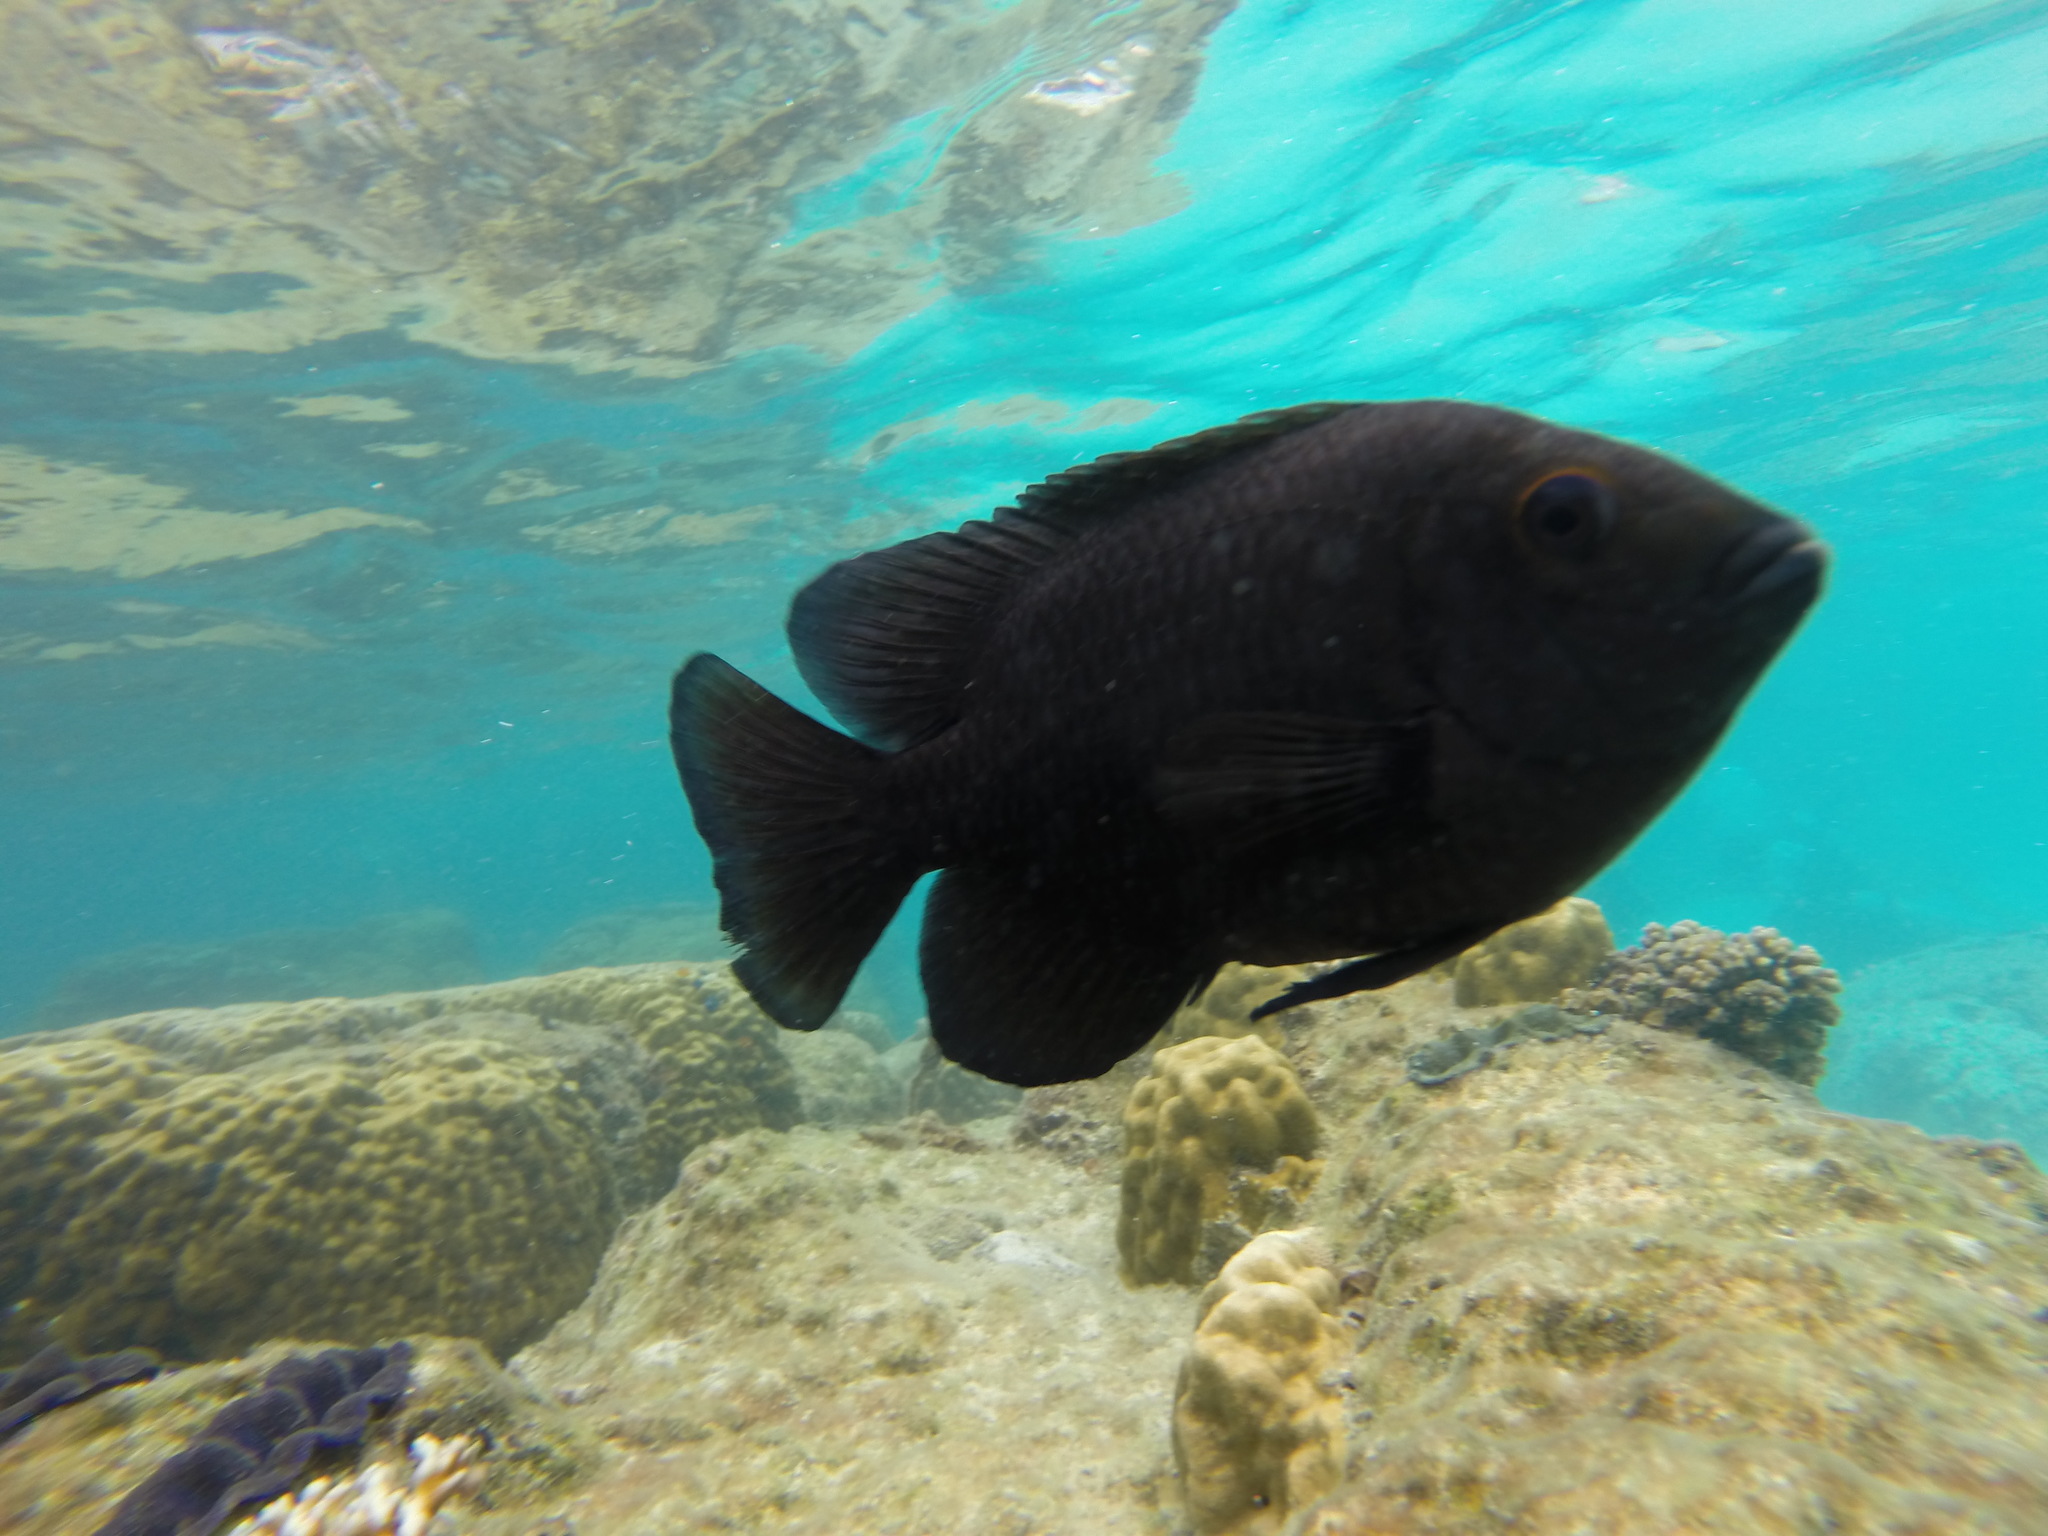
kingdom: Animalia
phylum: Chordata
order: Perciformes
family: Pomacentridae
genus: Hemiglyphidodon
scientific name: Hemiglyphidodon plagiometopon
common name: Lagoon damsel
